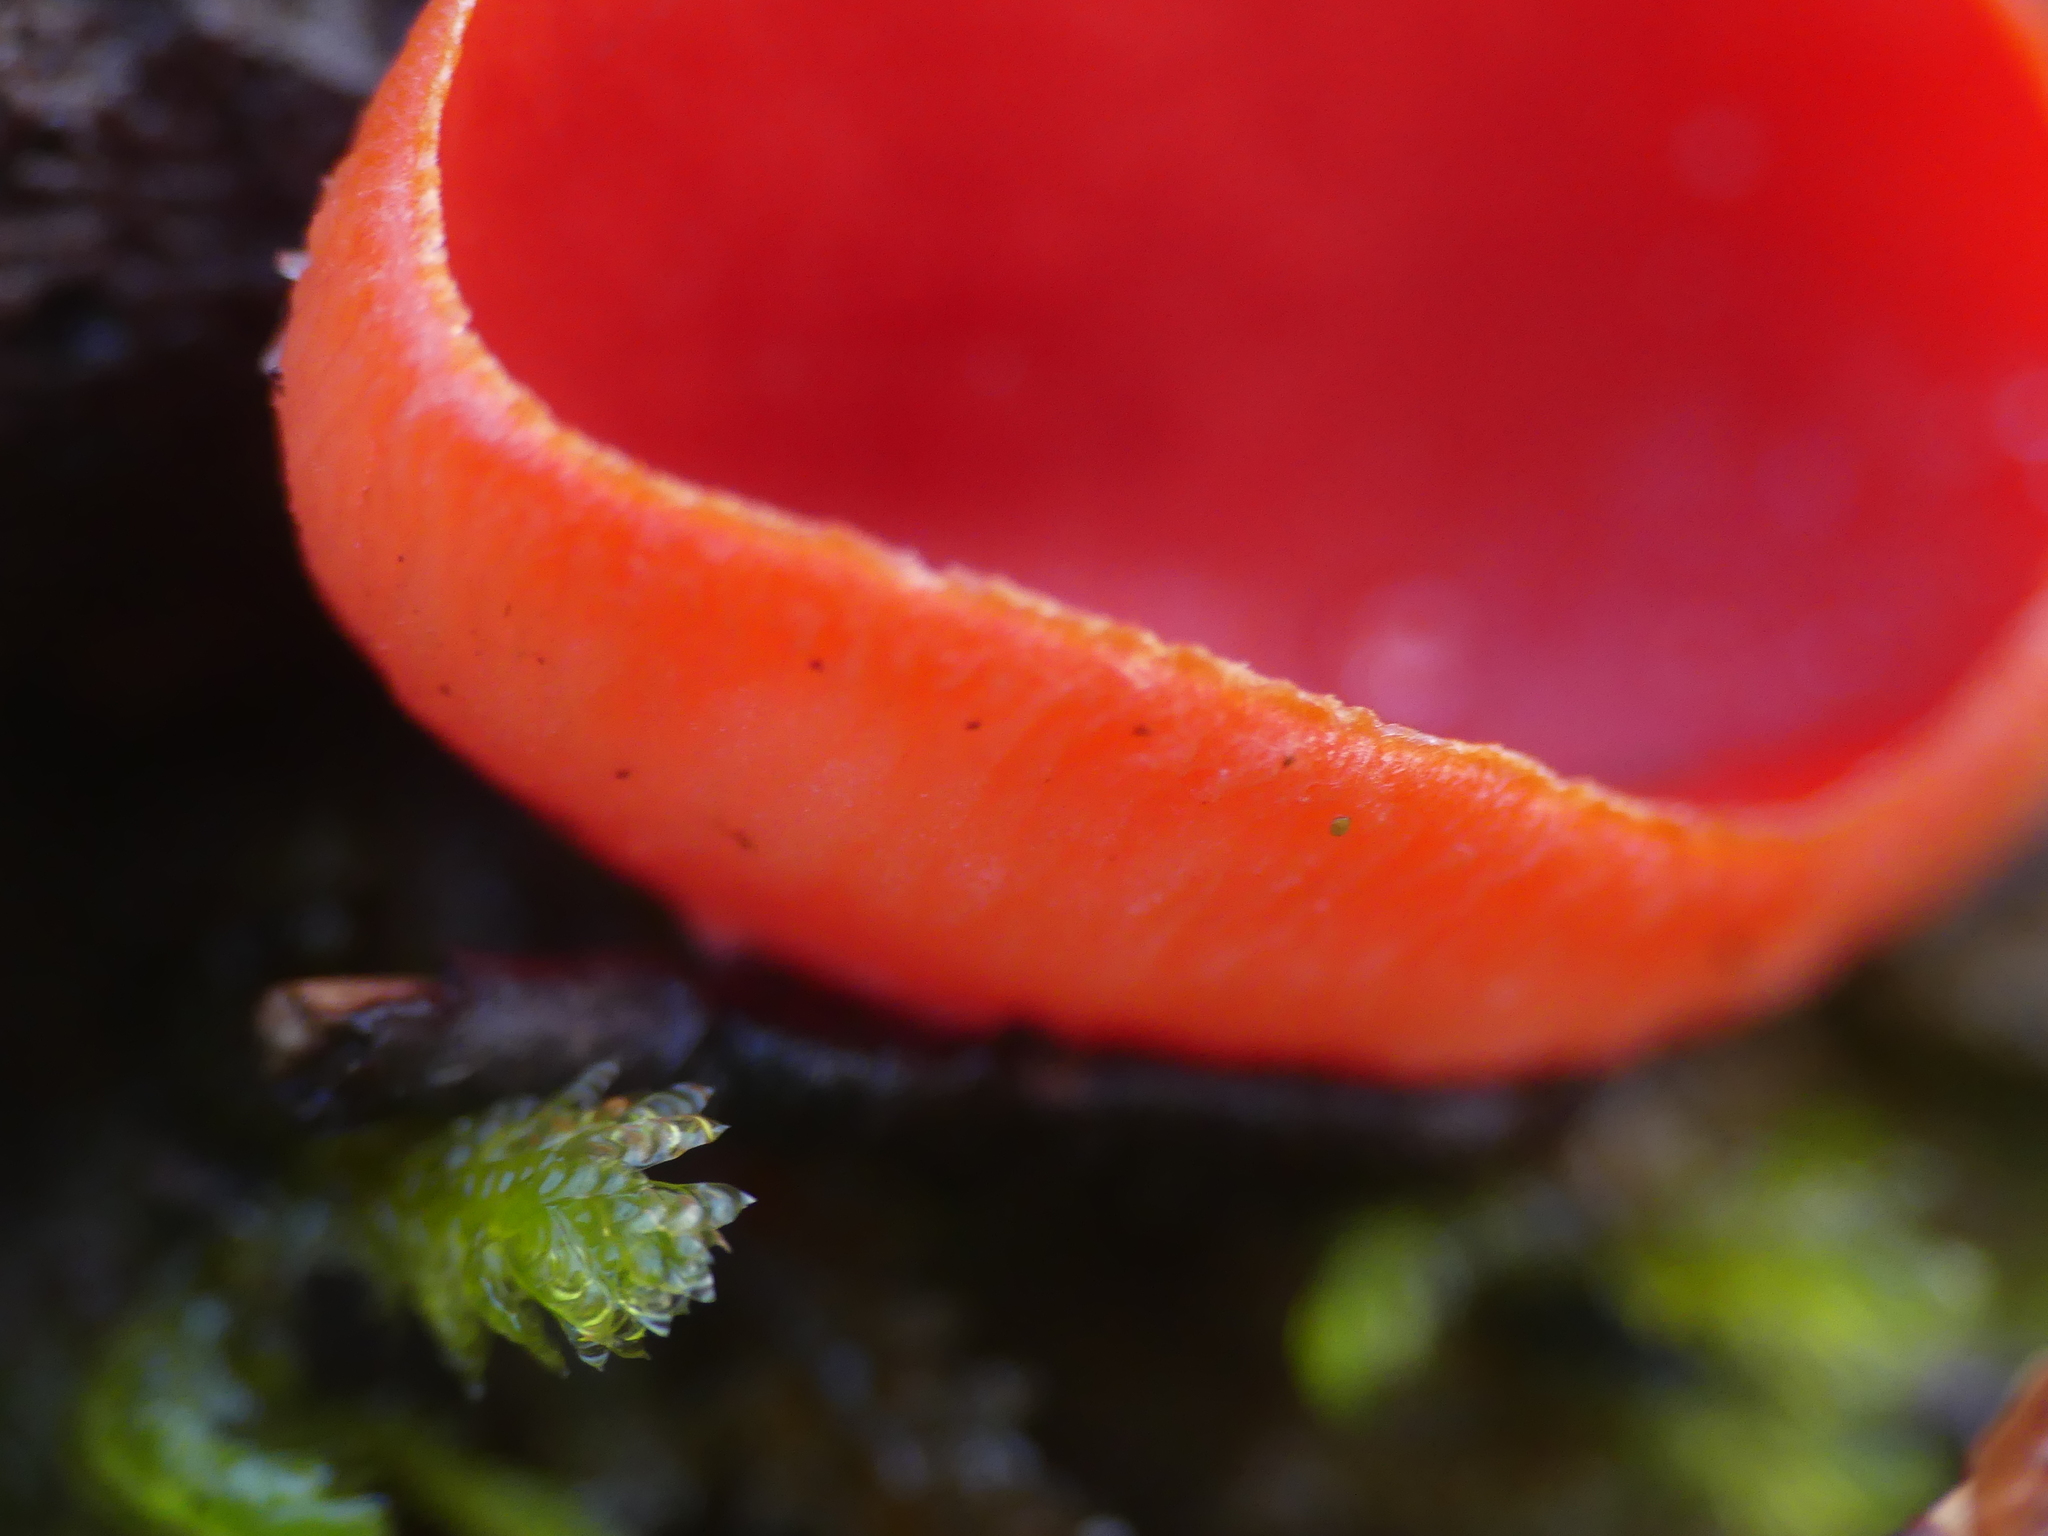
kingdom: Fungi
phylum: Ascomycota
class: Pezizomycetes
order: Pezizales
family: Sarcoscyphaceae
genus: Sarcoscypha
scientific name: Sarcoscypha
